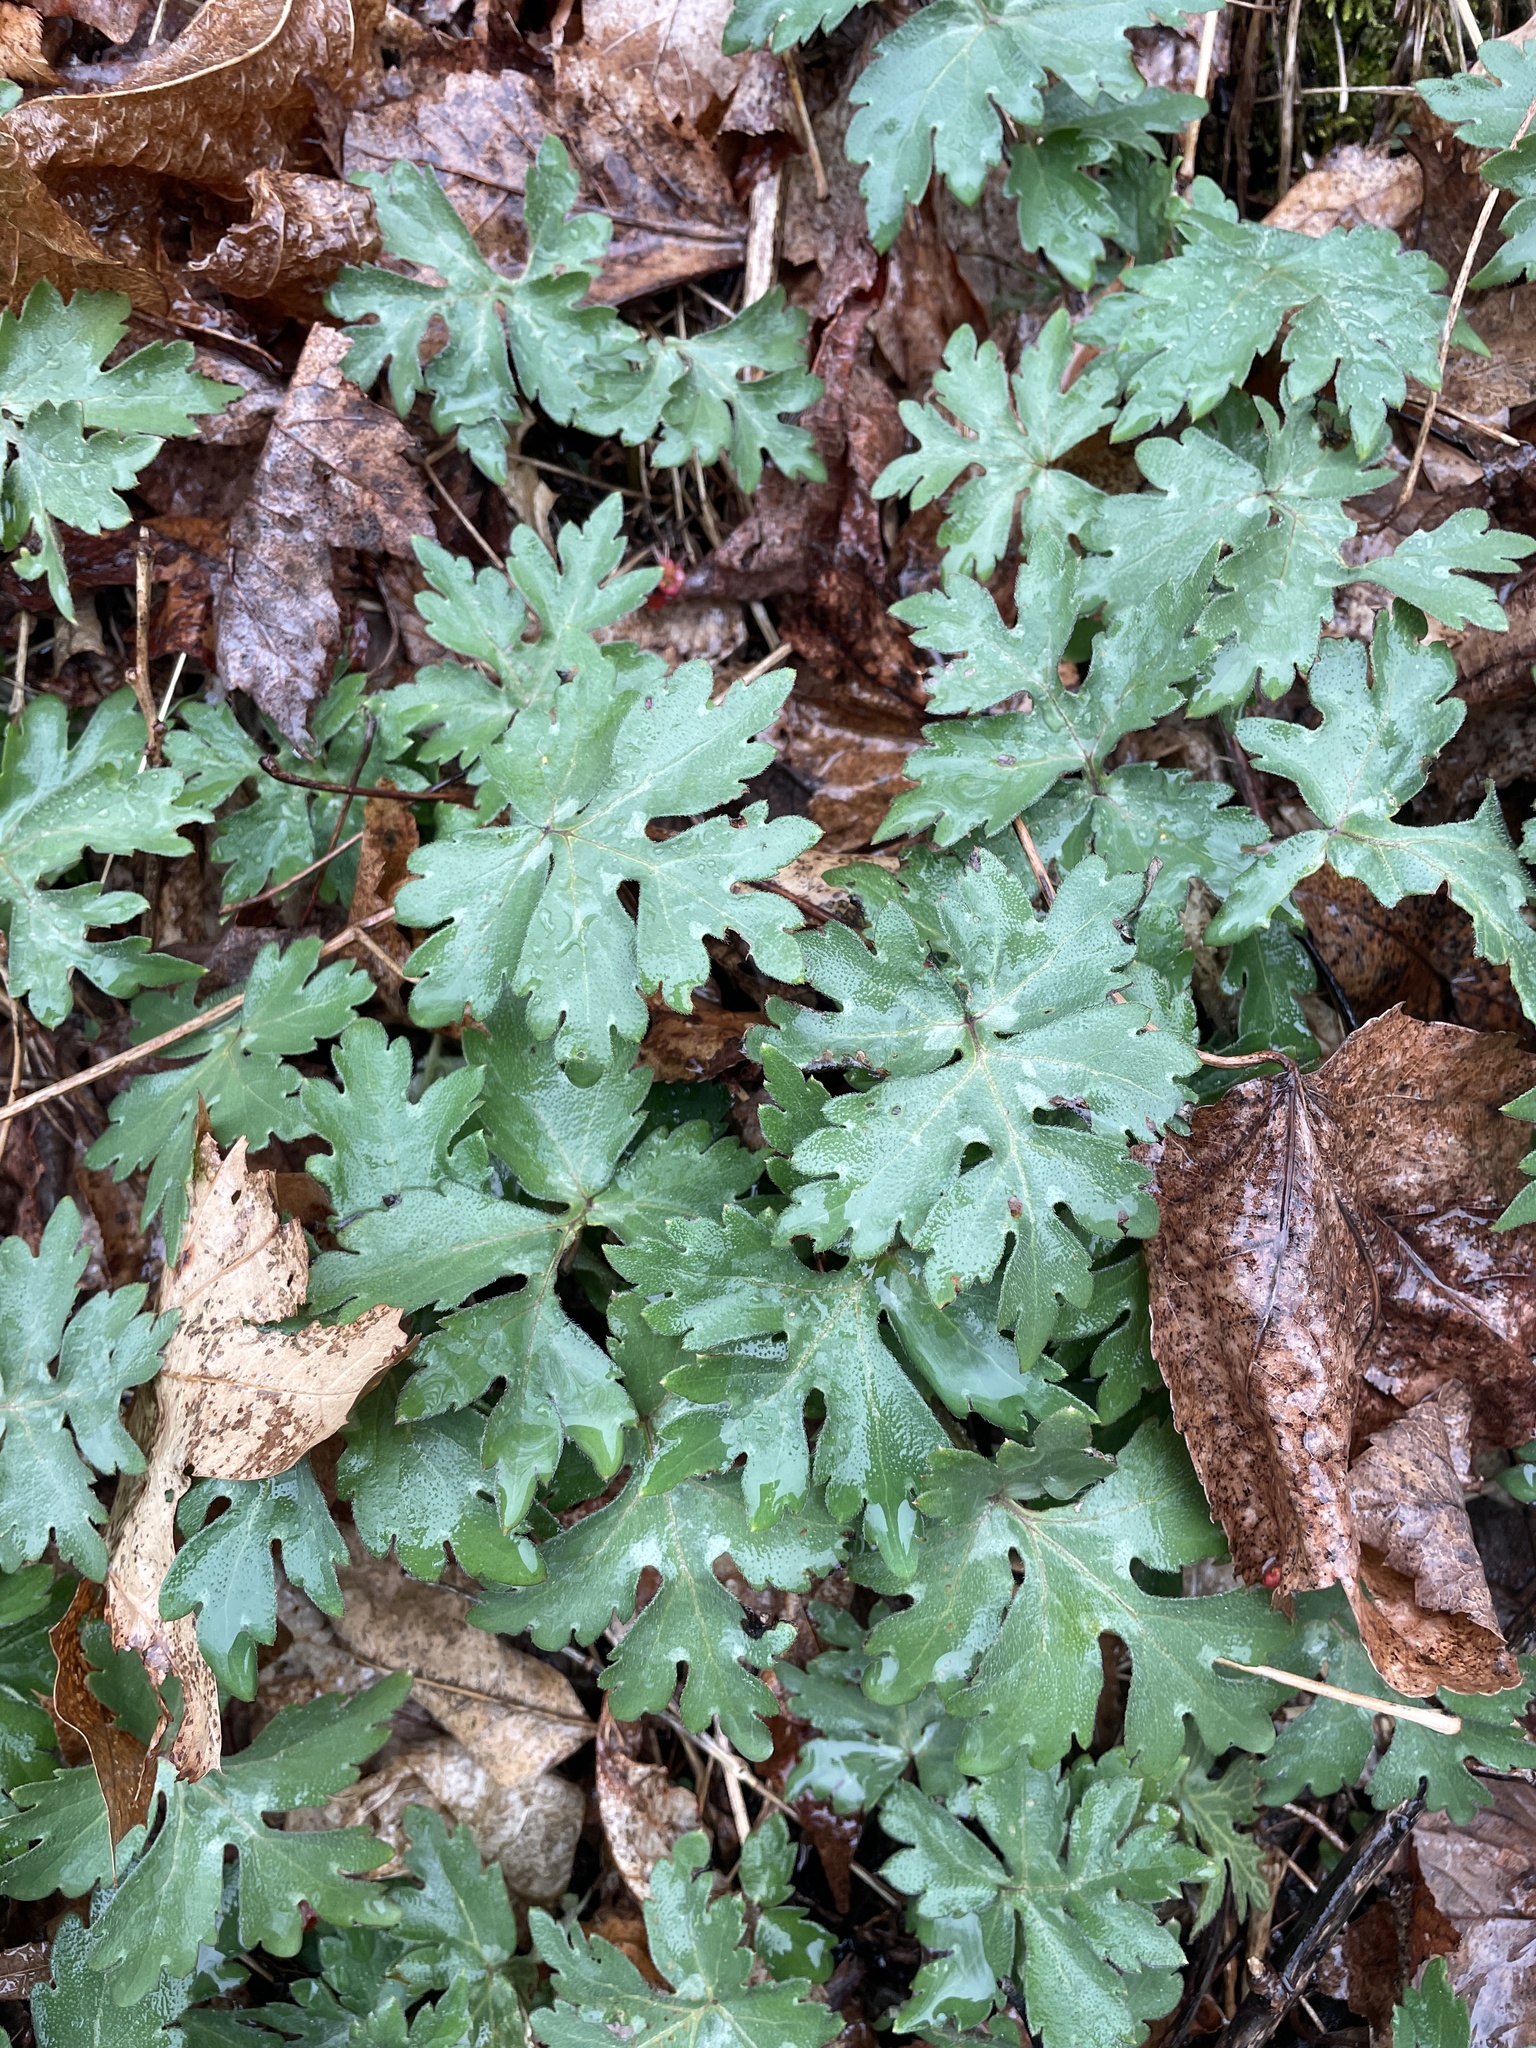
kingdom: Plantae
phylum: Tracheophyta
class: Magnoliopsida
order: Boraginales
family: Hydrophyllaceae
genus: Hydrophyllum
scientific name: Hydrophyllum canadense
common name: Canada waterleaf
